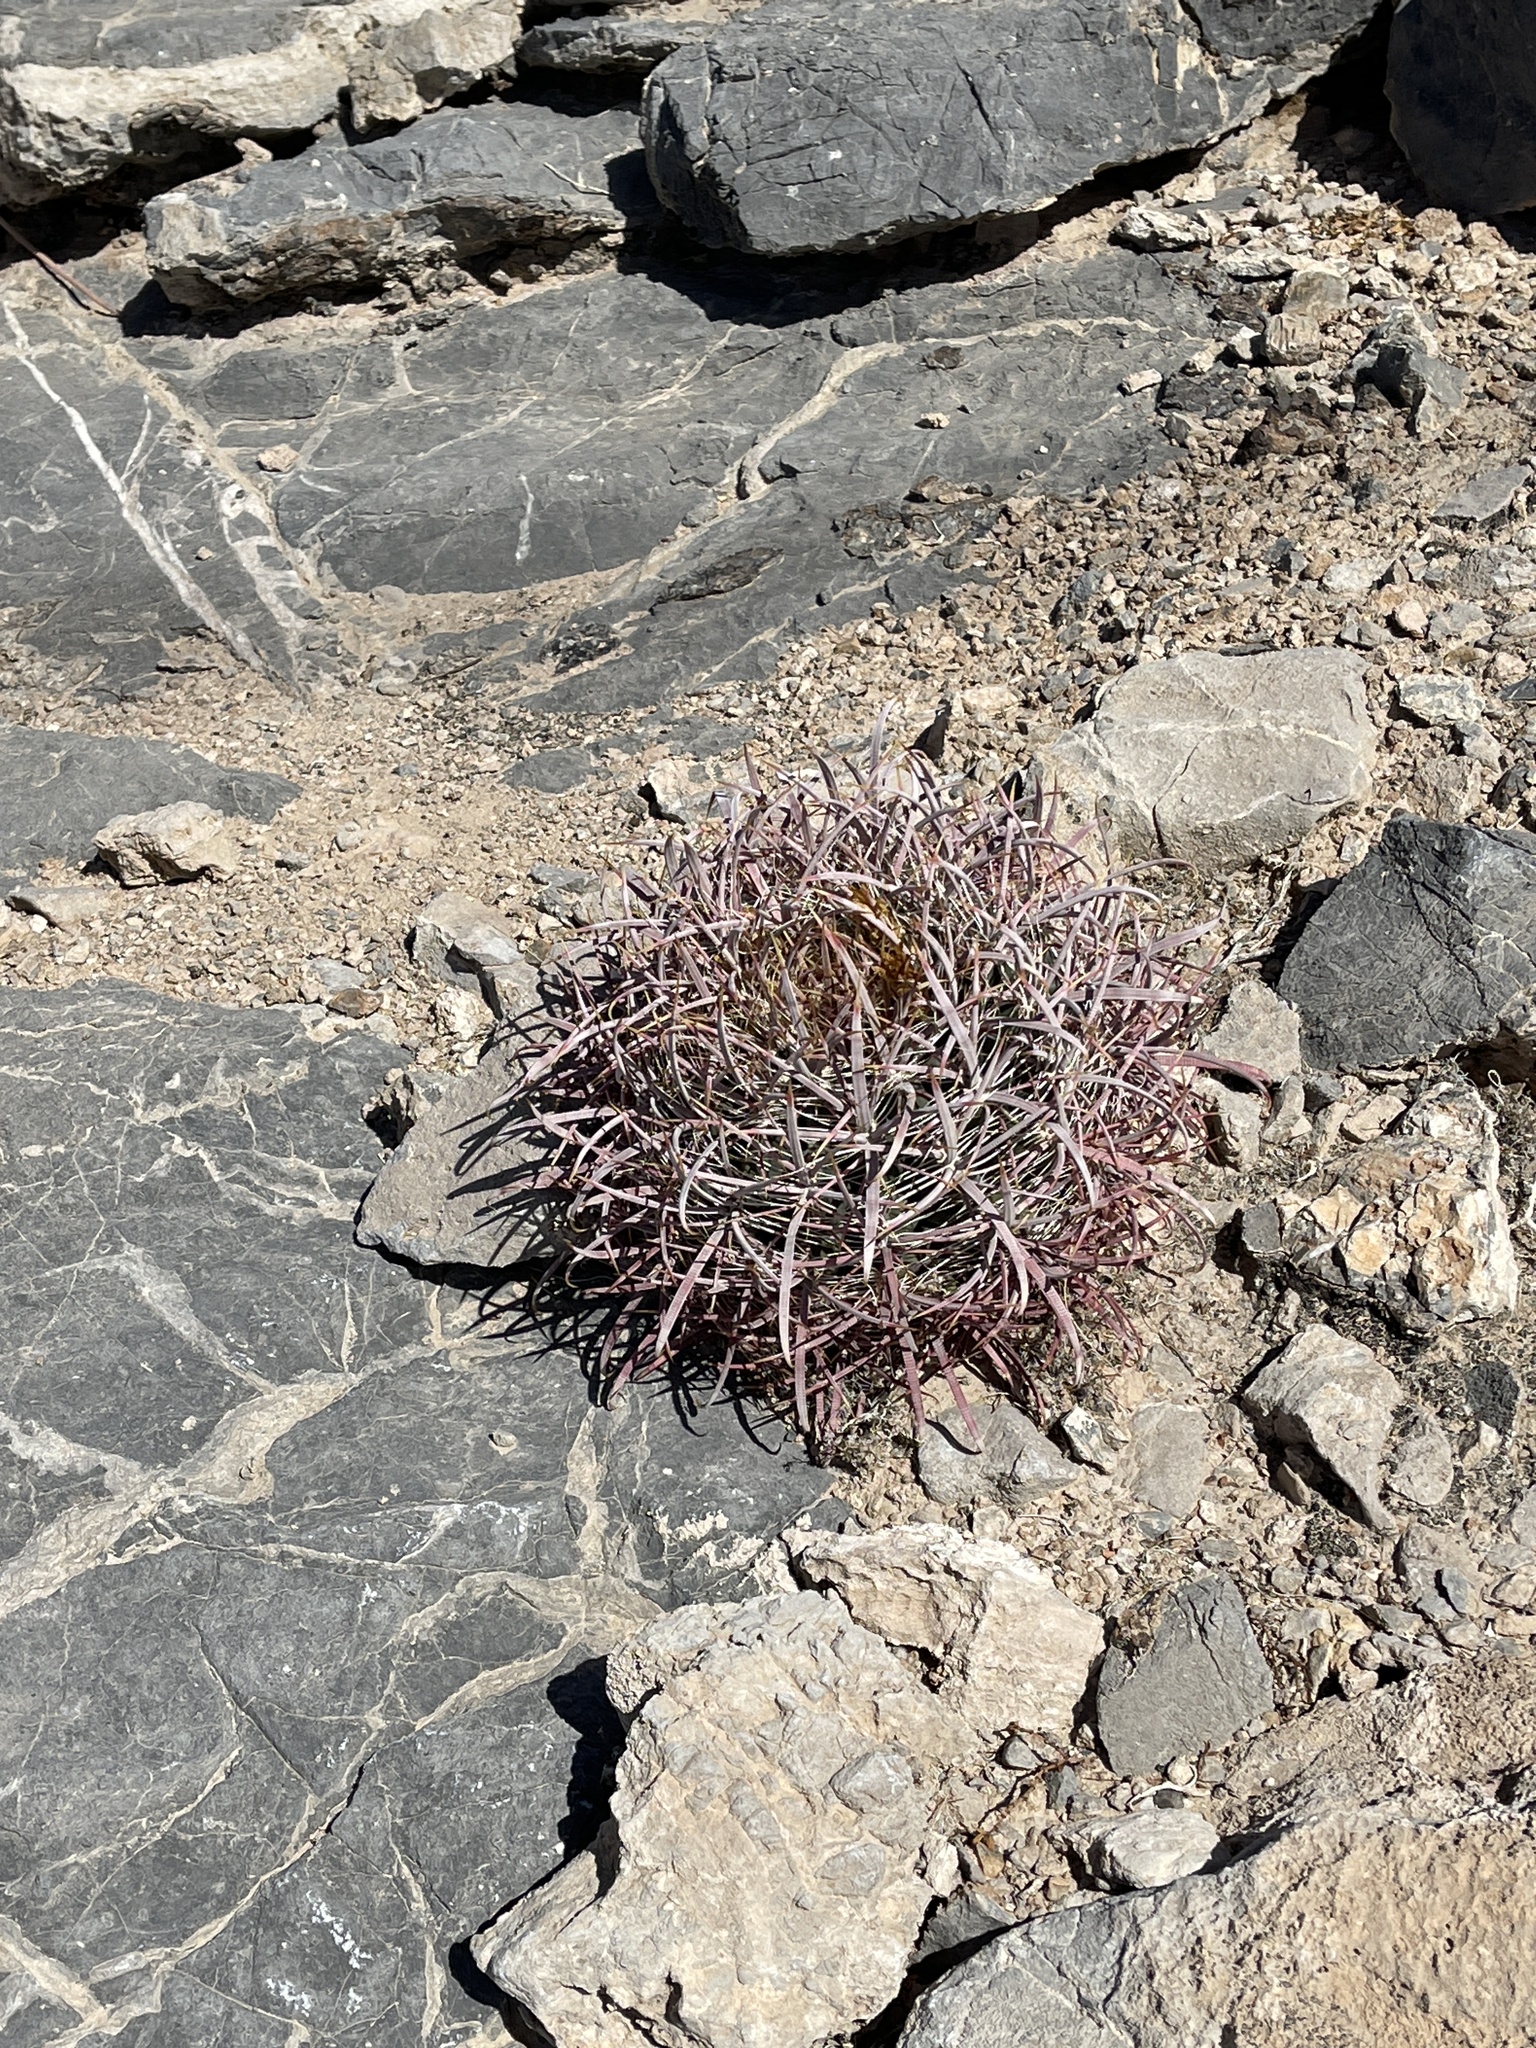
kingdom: Plantae
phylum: Tracheophyta
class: Magnoliopsida
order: Caryophyllales
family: Cactaceae
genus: Ferocactus
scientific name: Ferocactus cylindraceus
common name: California barrel cactus
